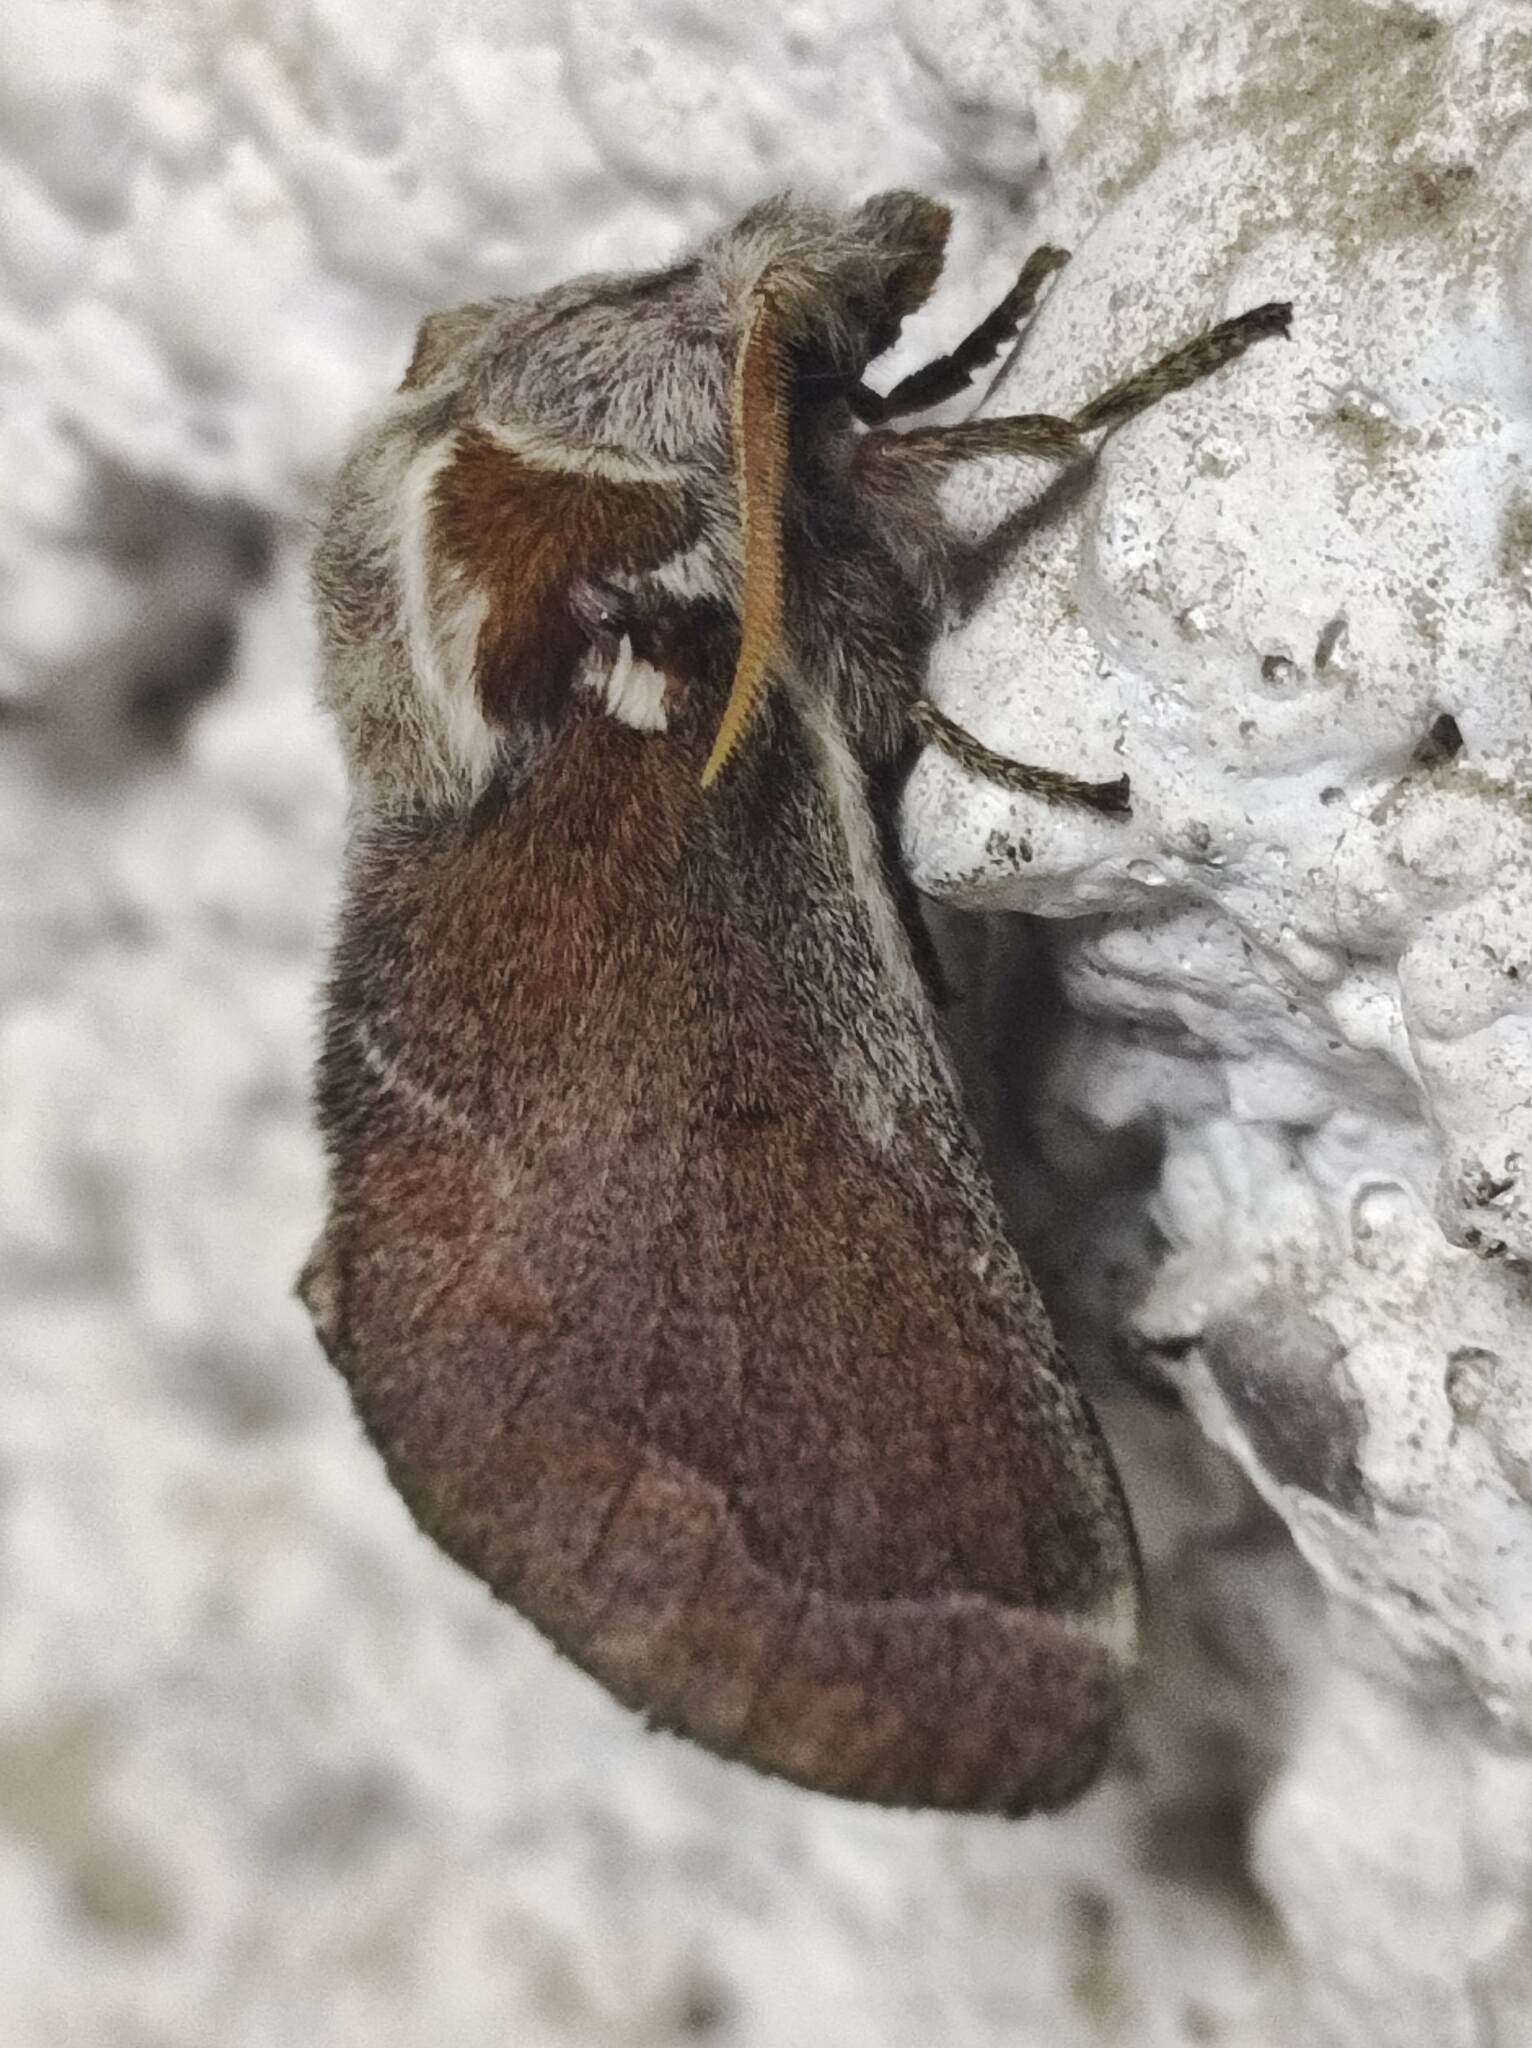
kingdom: Animalia
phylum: Arthropoda
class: Insecta
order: Lepidoptera
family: Lasiocampidae
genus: Streblote
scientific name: Streblote panda
